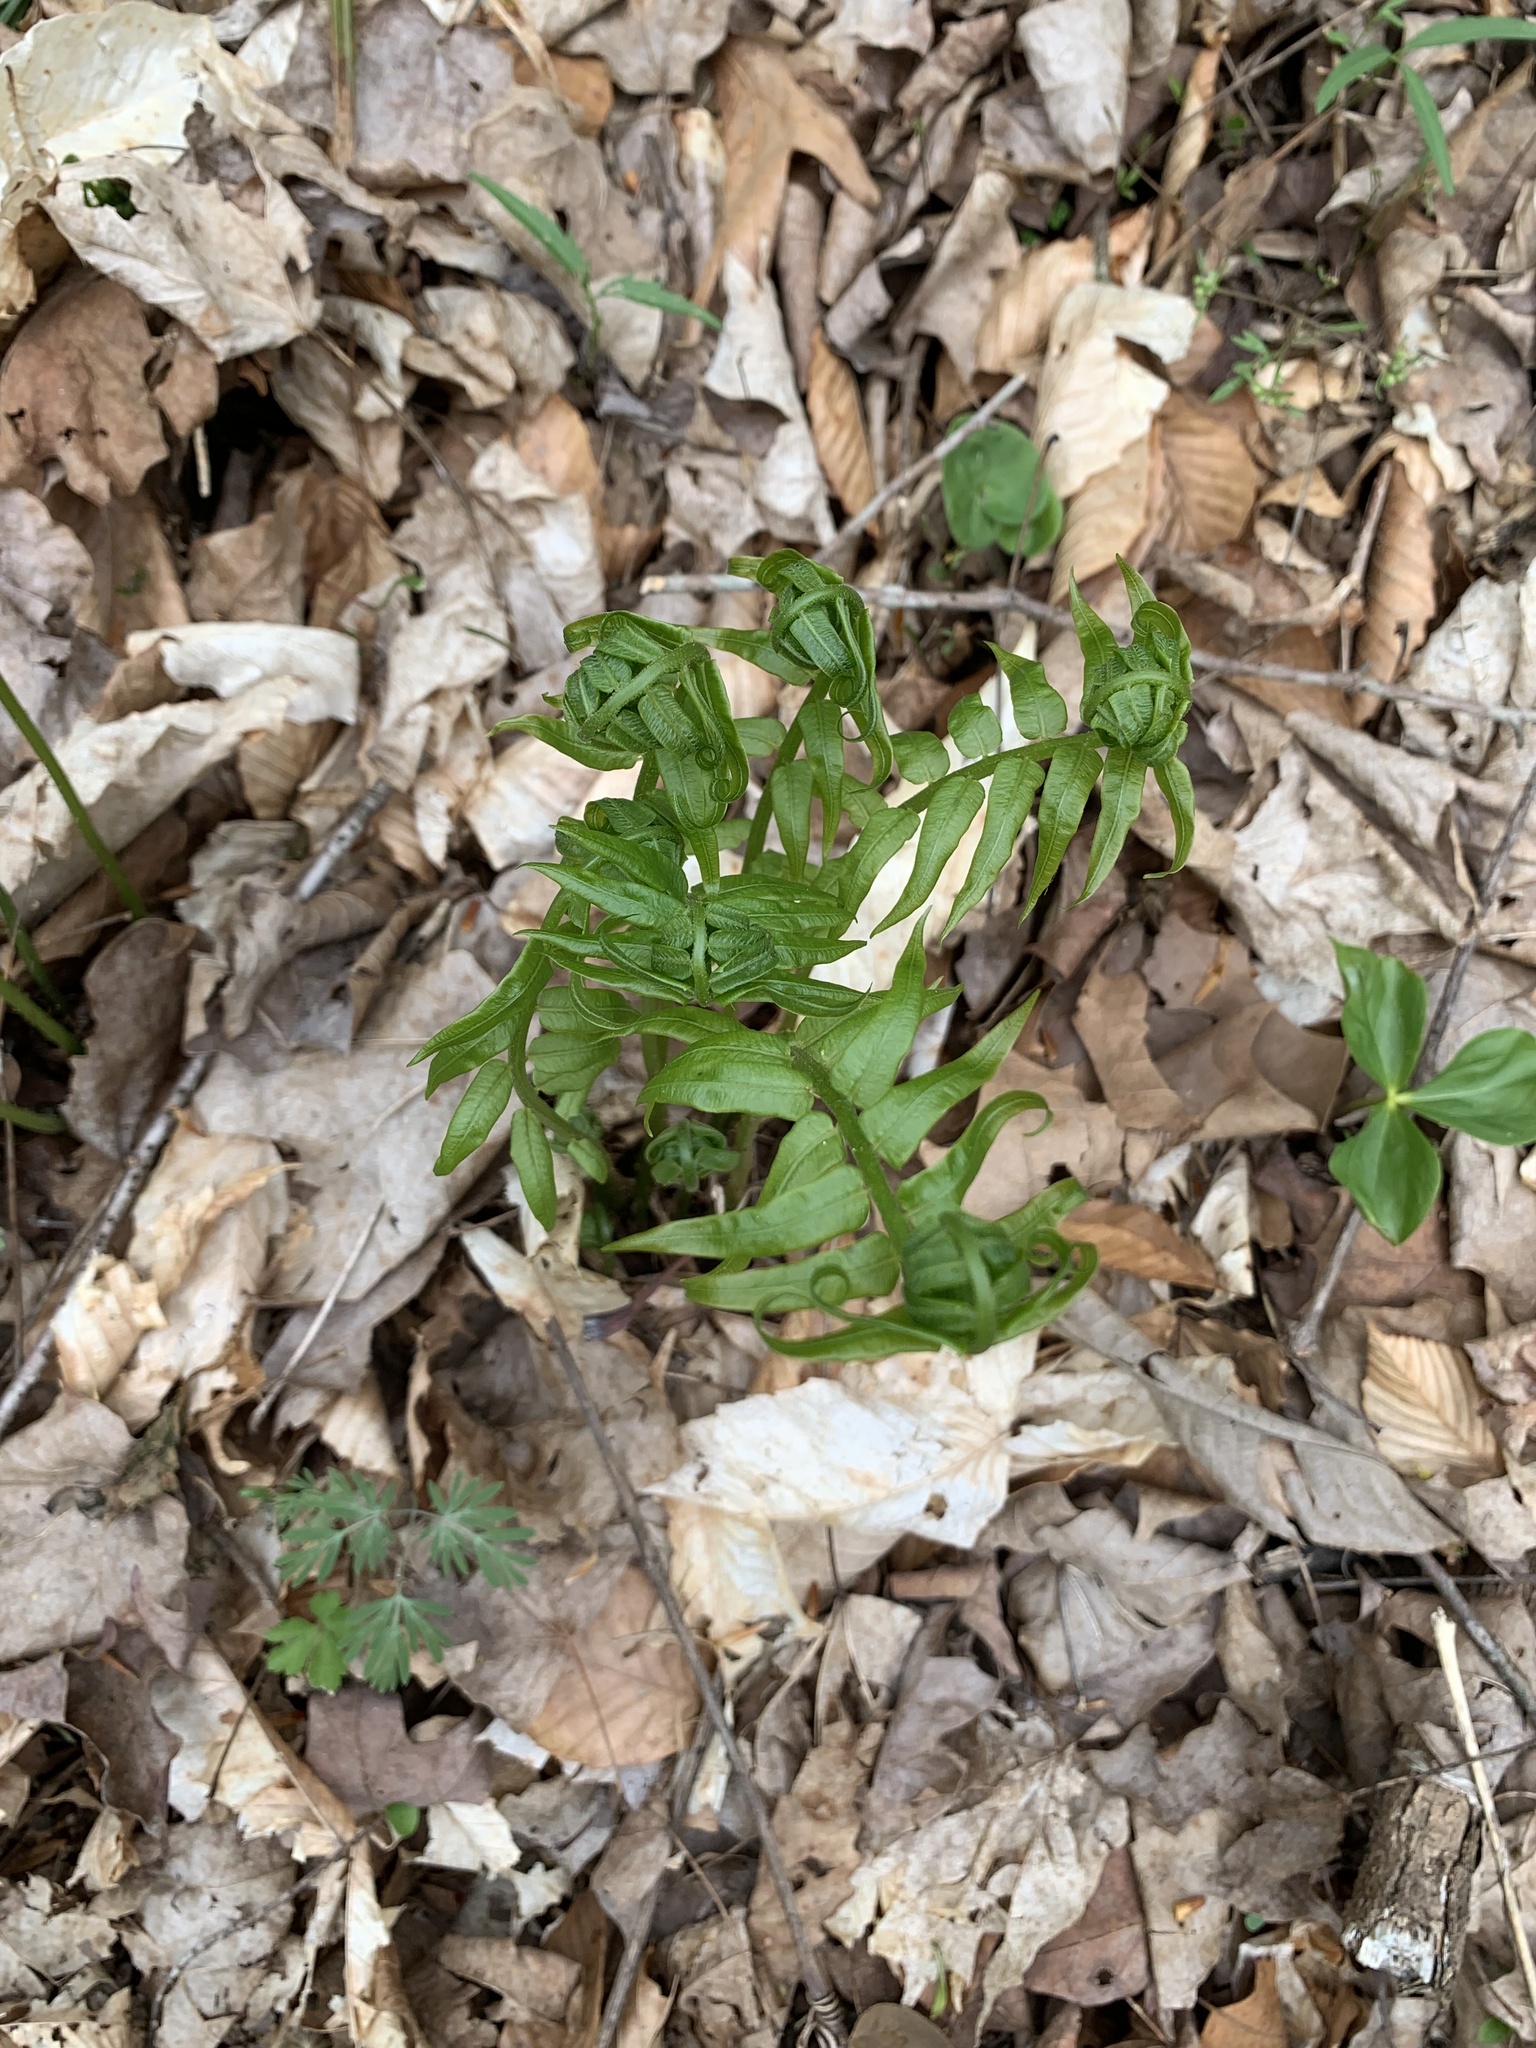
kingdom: Plantae
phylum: Tracheophyta
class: Polypodiopsida
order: Polypodiales
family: Diplaziopsidaceae
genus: Homalosorus
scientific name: Homalosorus pycnocarpos
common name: Glade fern
